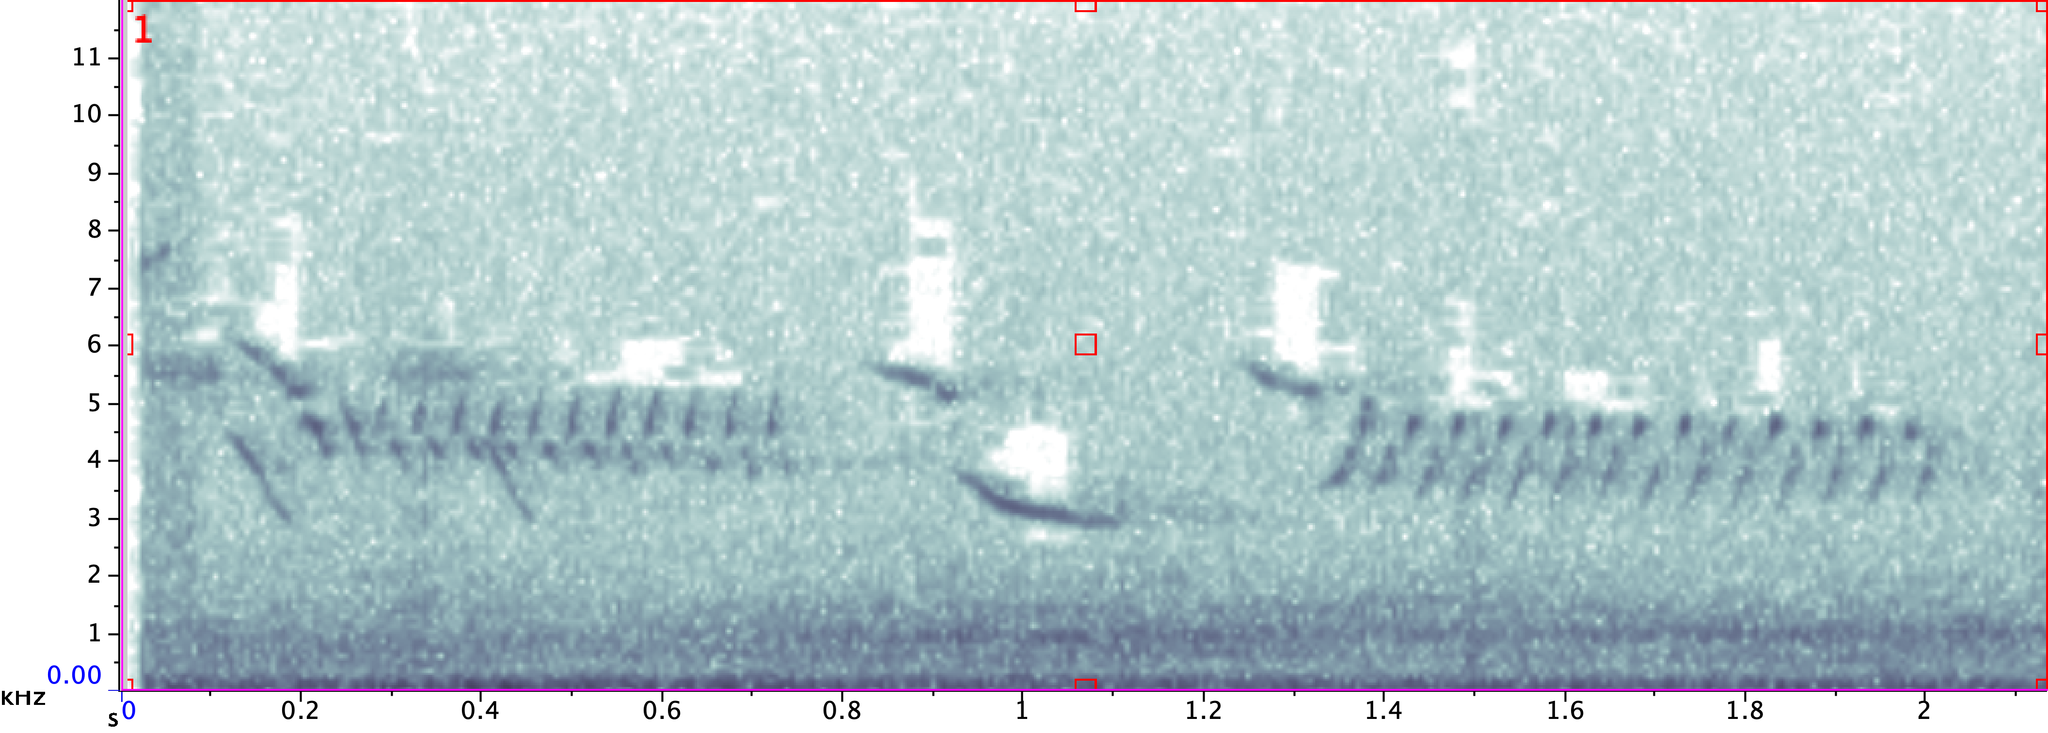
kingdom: Animalia
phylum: Chordata
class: Aves
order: Passeriformes
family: Troglodytidae
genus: Thryomanes
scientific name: Thryomanes bewickii
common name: Bewick's wren
